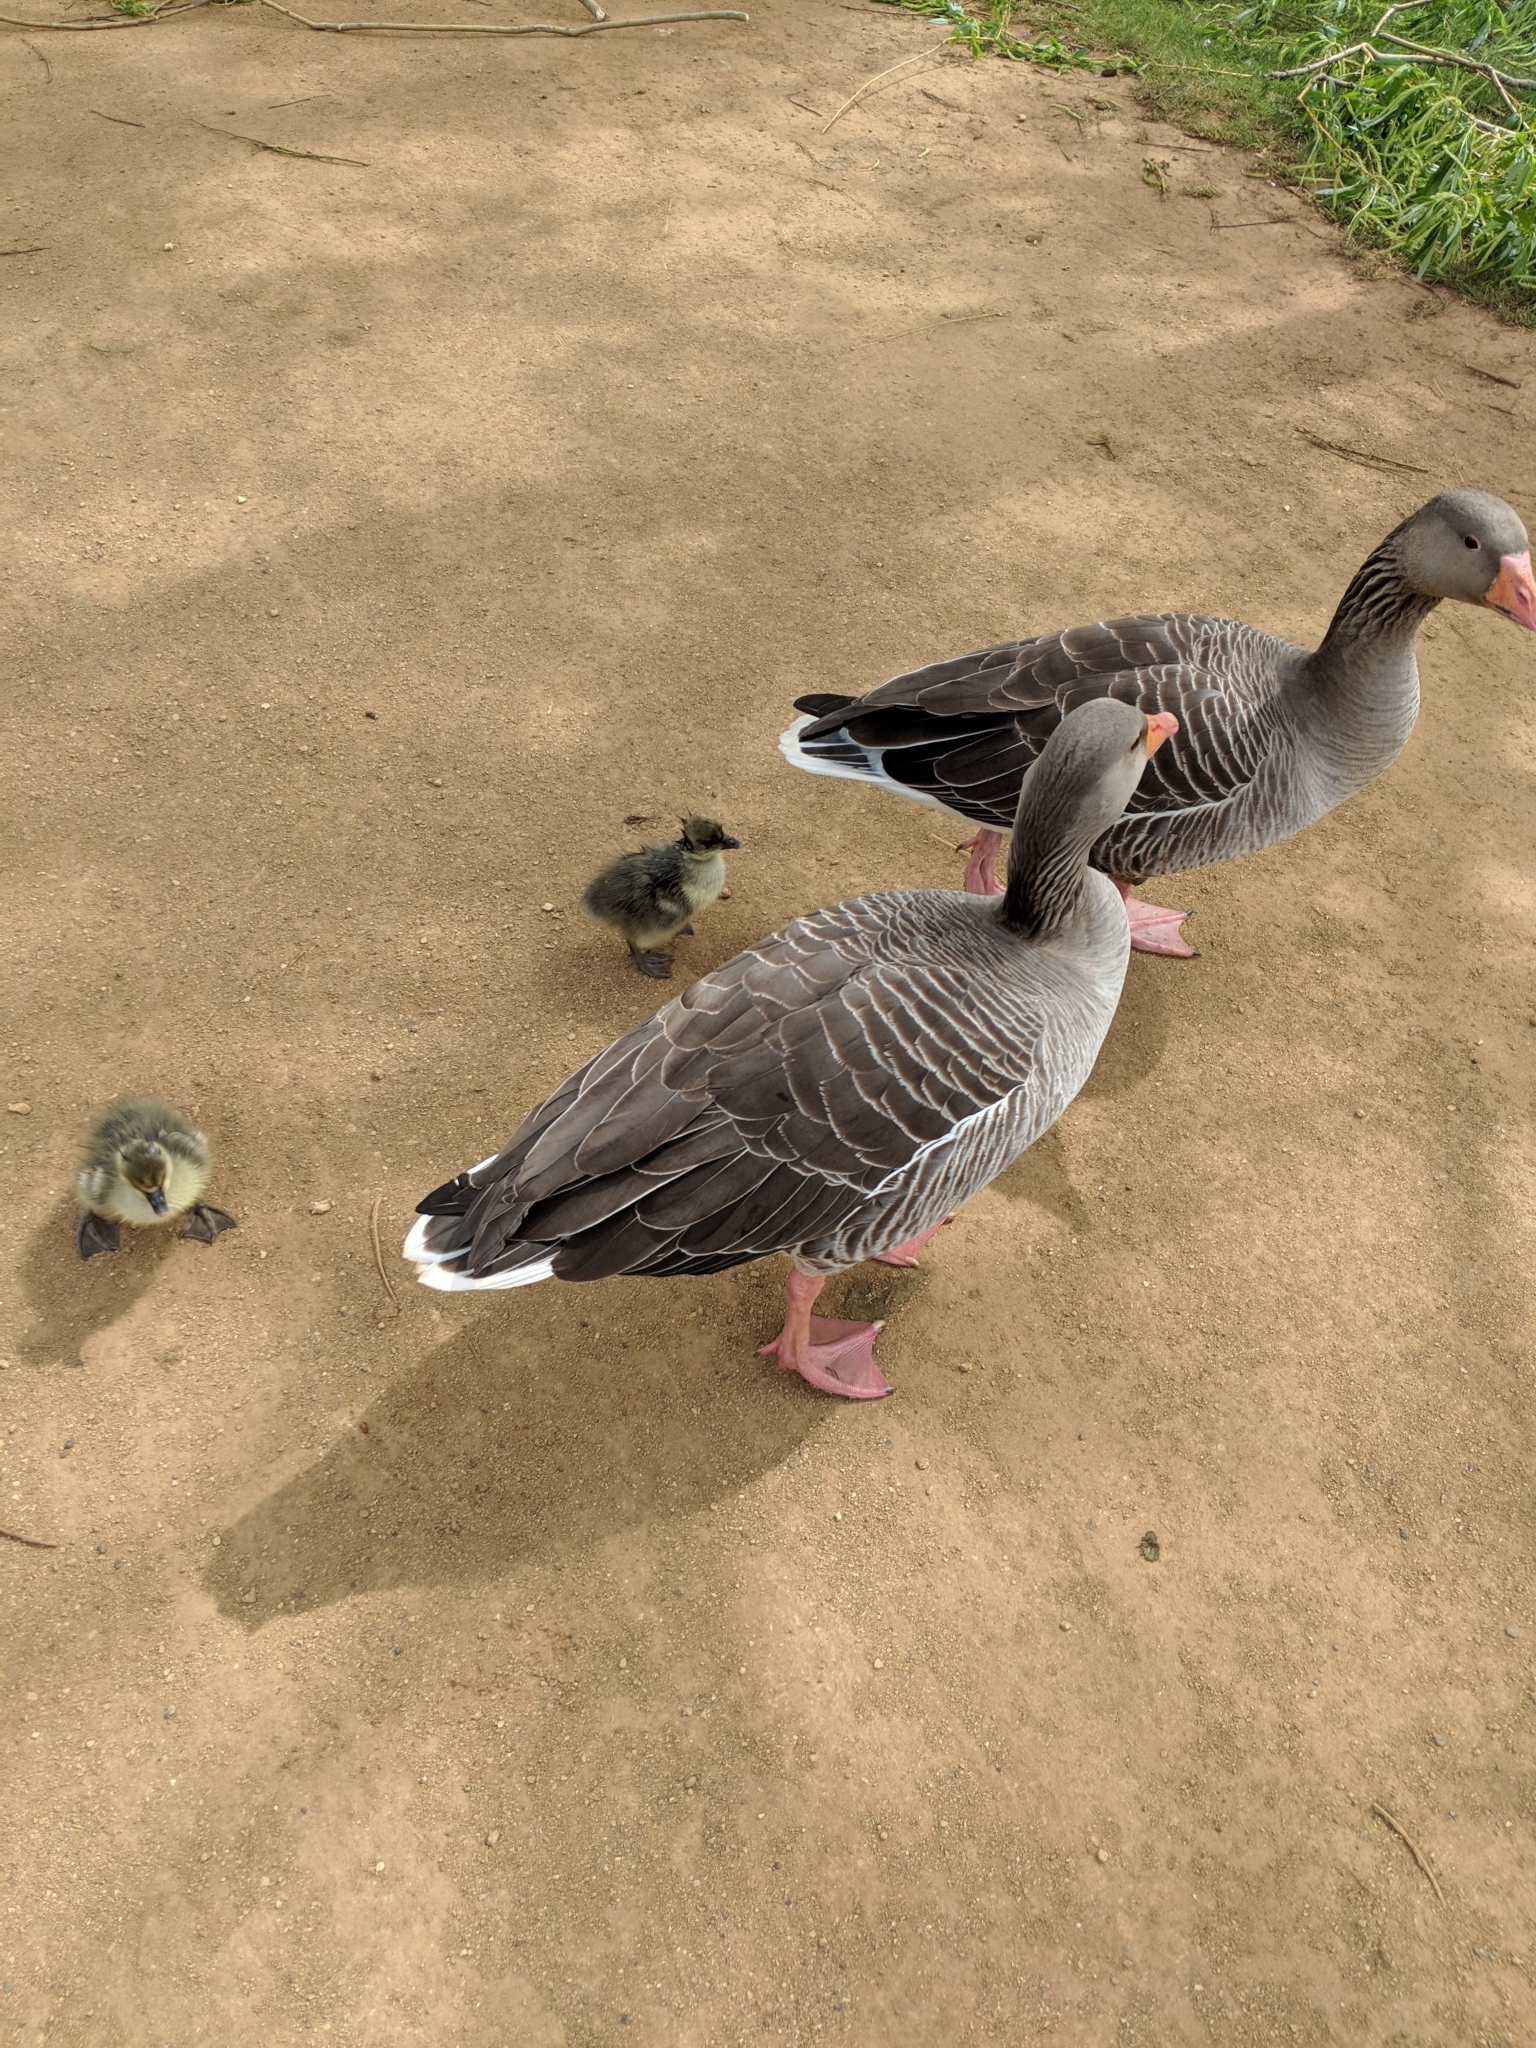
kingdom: Animalia
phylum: Chordata
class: Aves
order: Anseriformes
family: Anatidae
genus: Anser
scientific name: Anser anser
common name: Greylag goose
